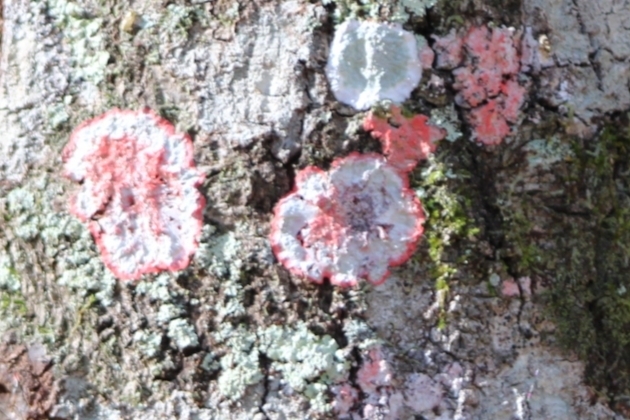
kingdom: Fungi
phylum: Ascomycota
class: Arthoniomycetes
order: Arthoniales
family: Arthoniaceae
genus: Herpothallon
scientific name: Herpothallon rubrocinctum
